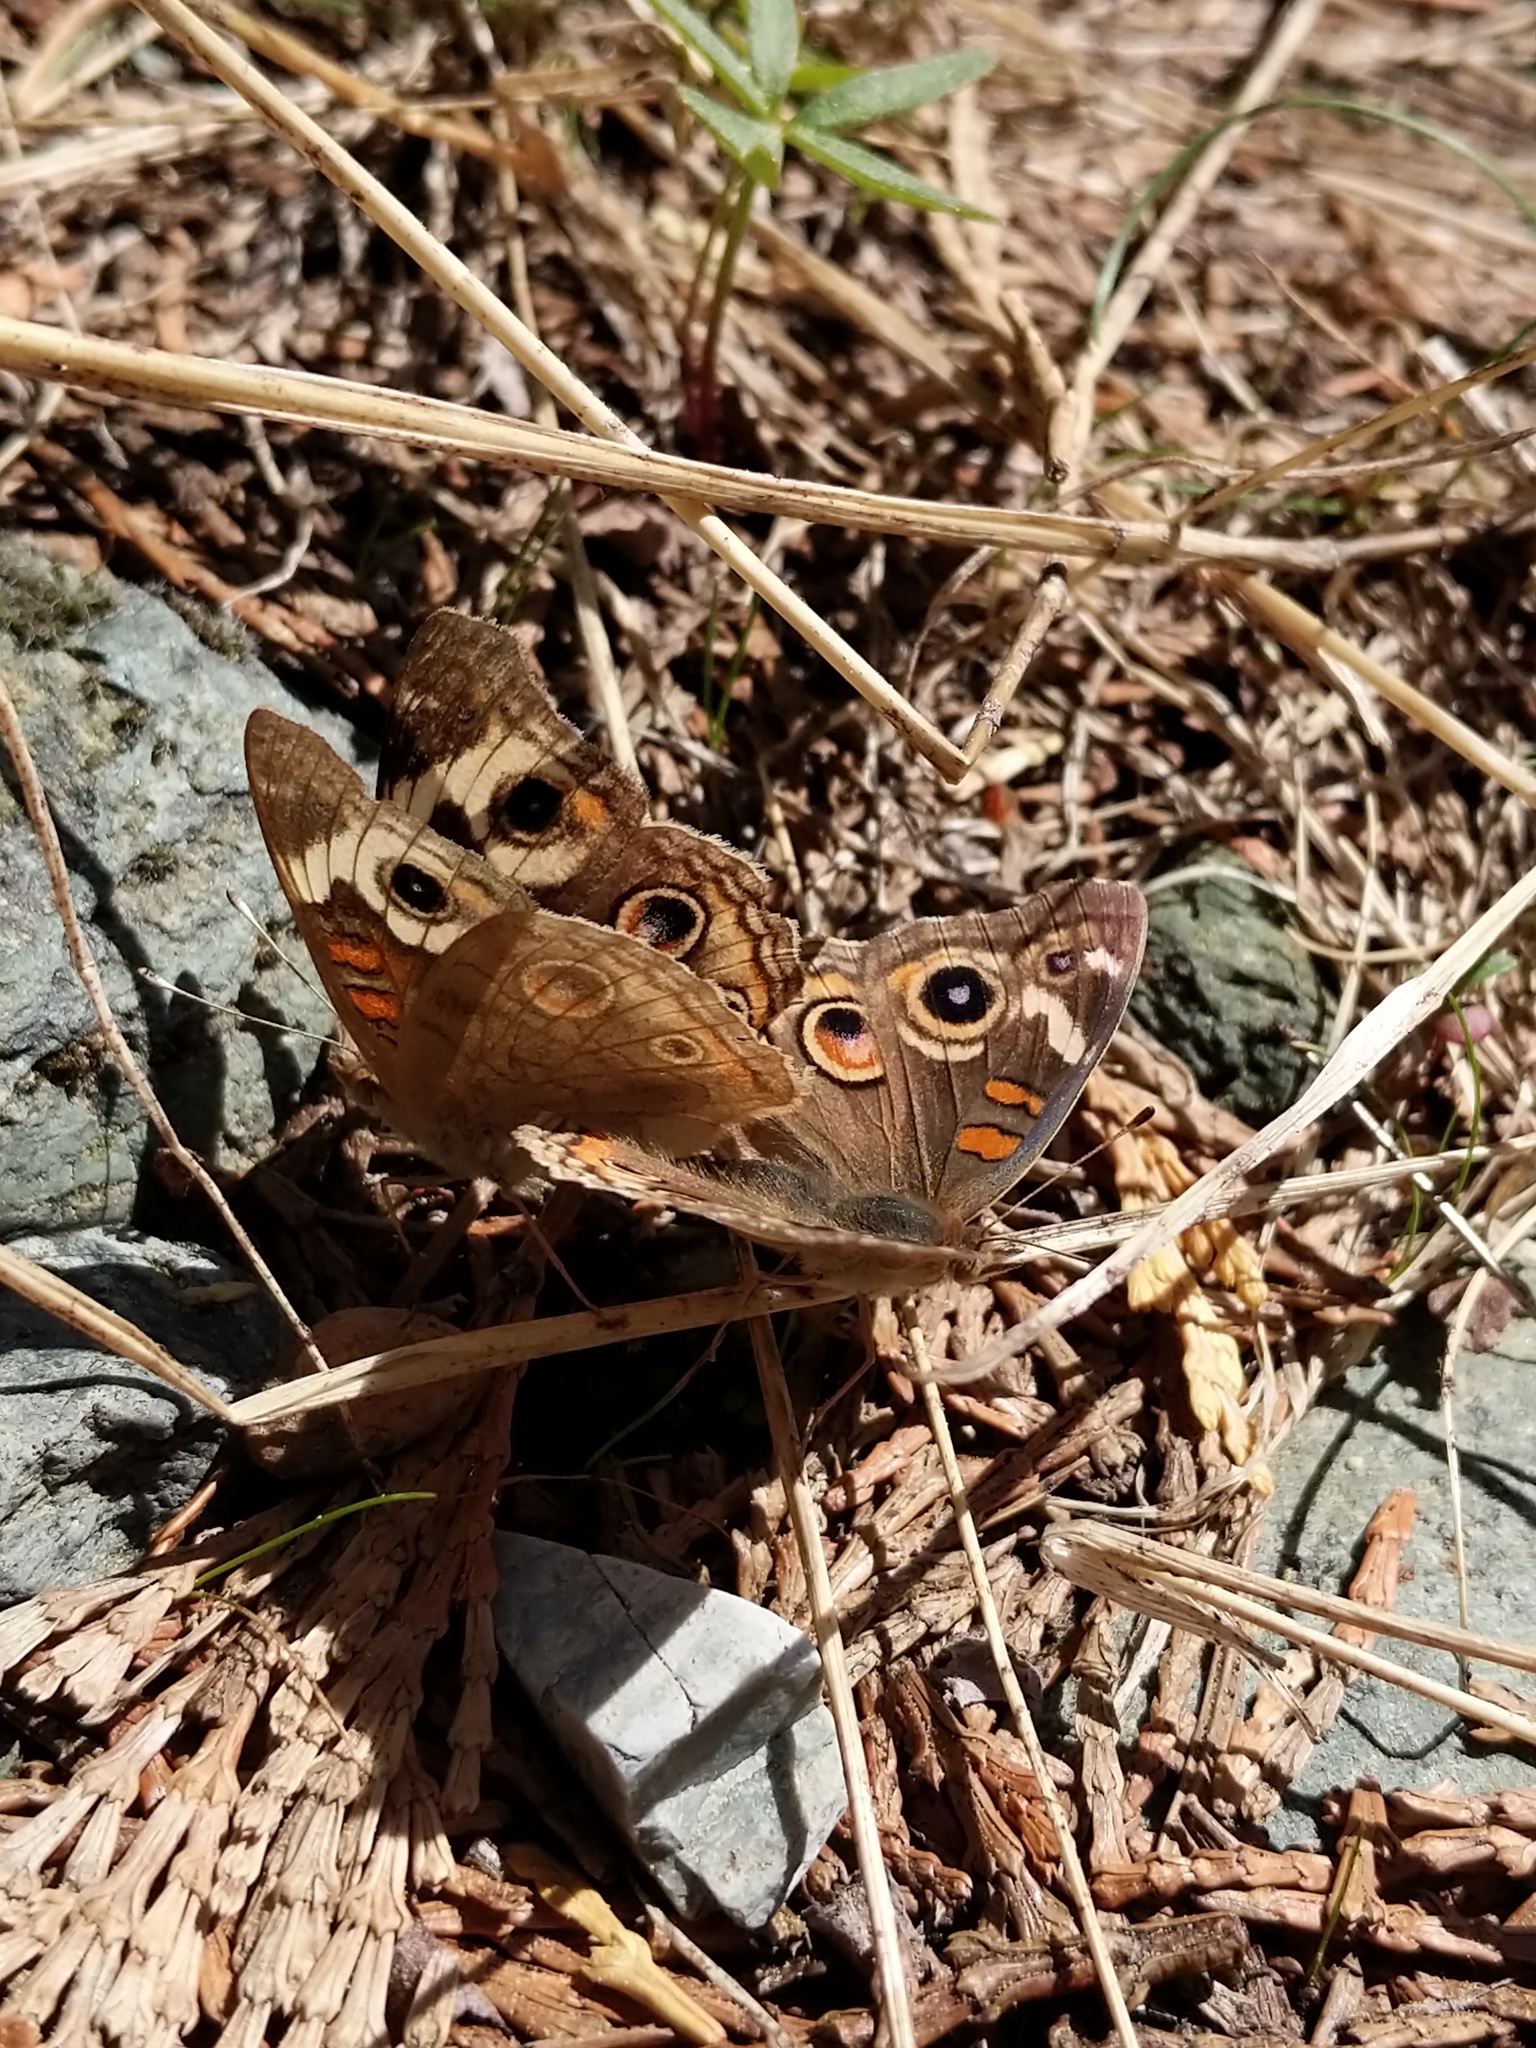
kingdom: Animalia
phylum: Arthropoda
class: Insecta
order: Lepidoptera
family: Nymphalidae
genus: Junonia
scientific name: Junonia grisea
